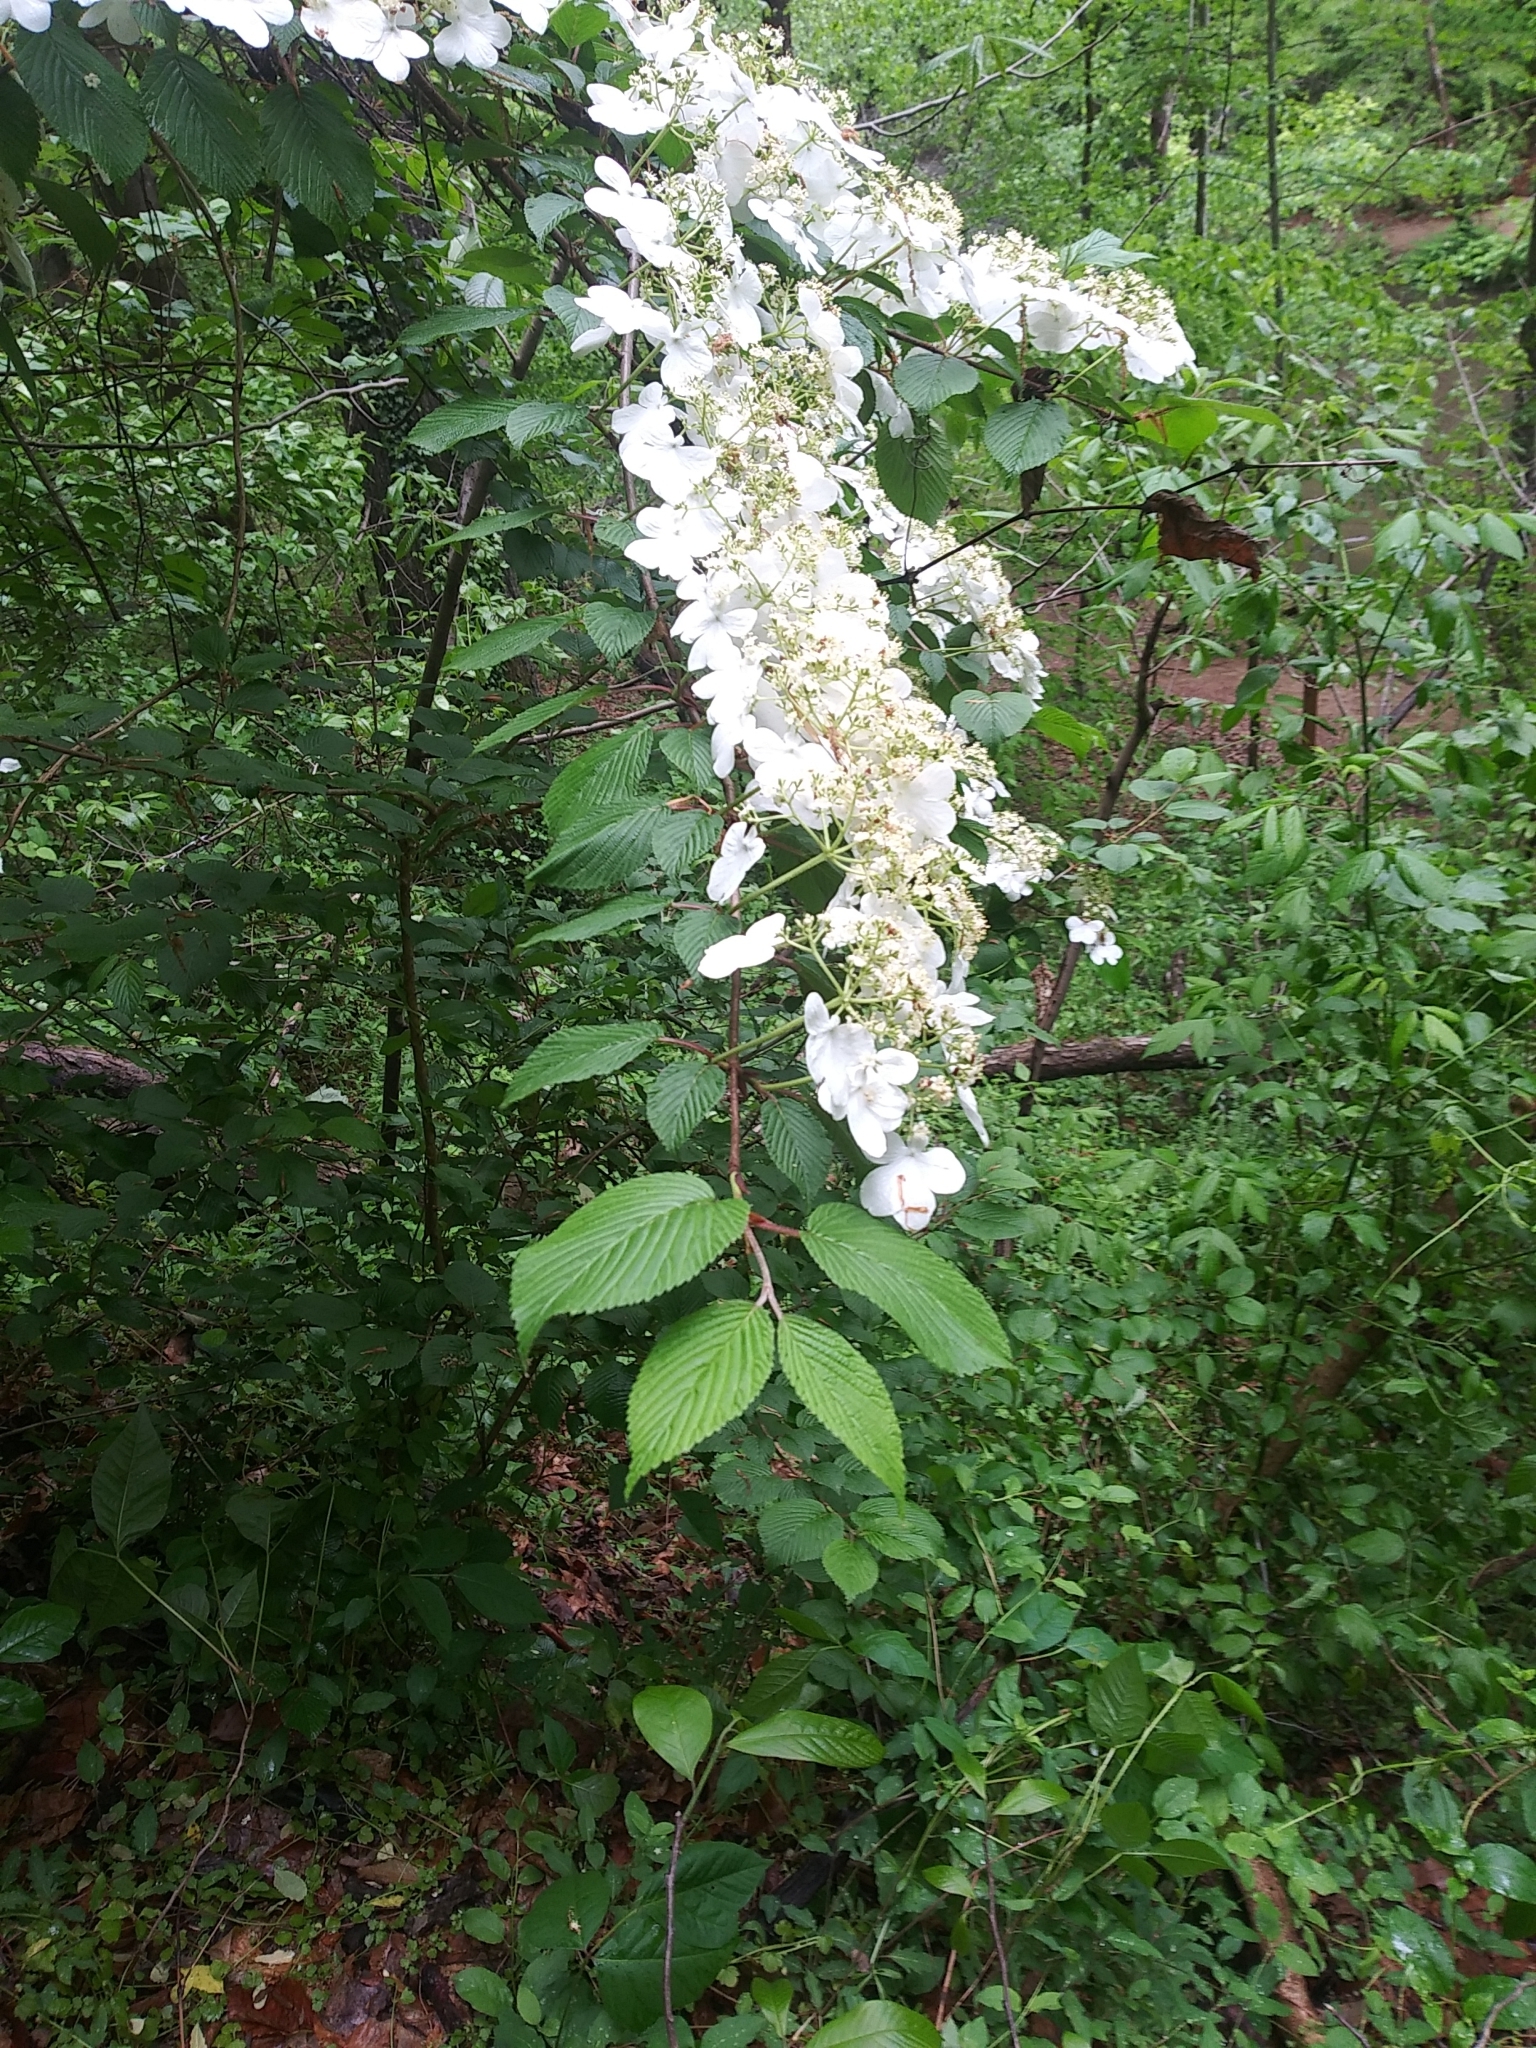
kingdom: Plantae
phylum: Tracheophyta
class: Magnoliopsida
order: Dipsacales
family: Viburnaceae
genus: Viburnum
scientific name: Viburnum plicatum
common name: Japanese snowball
